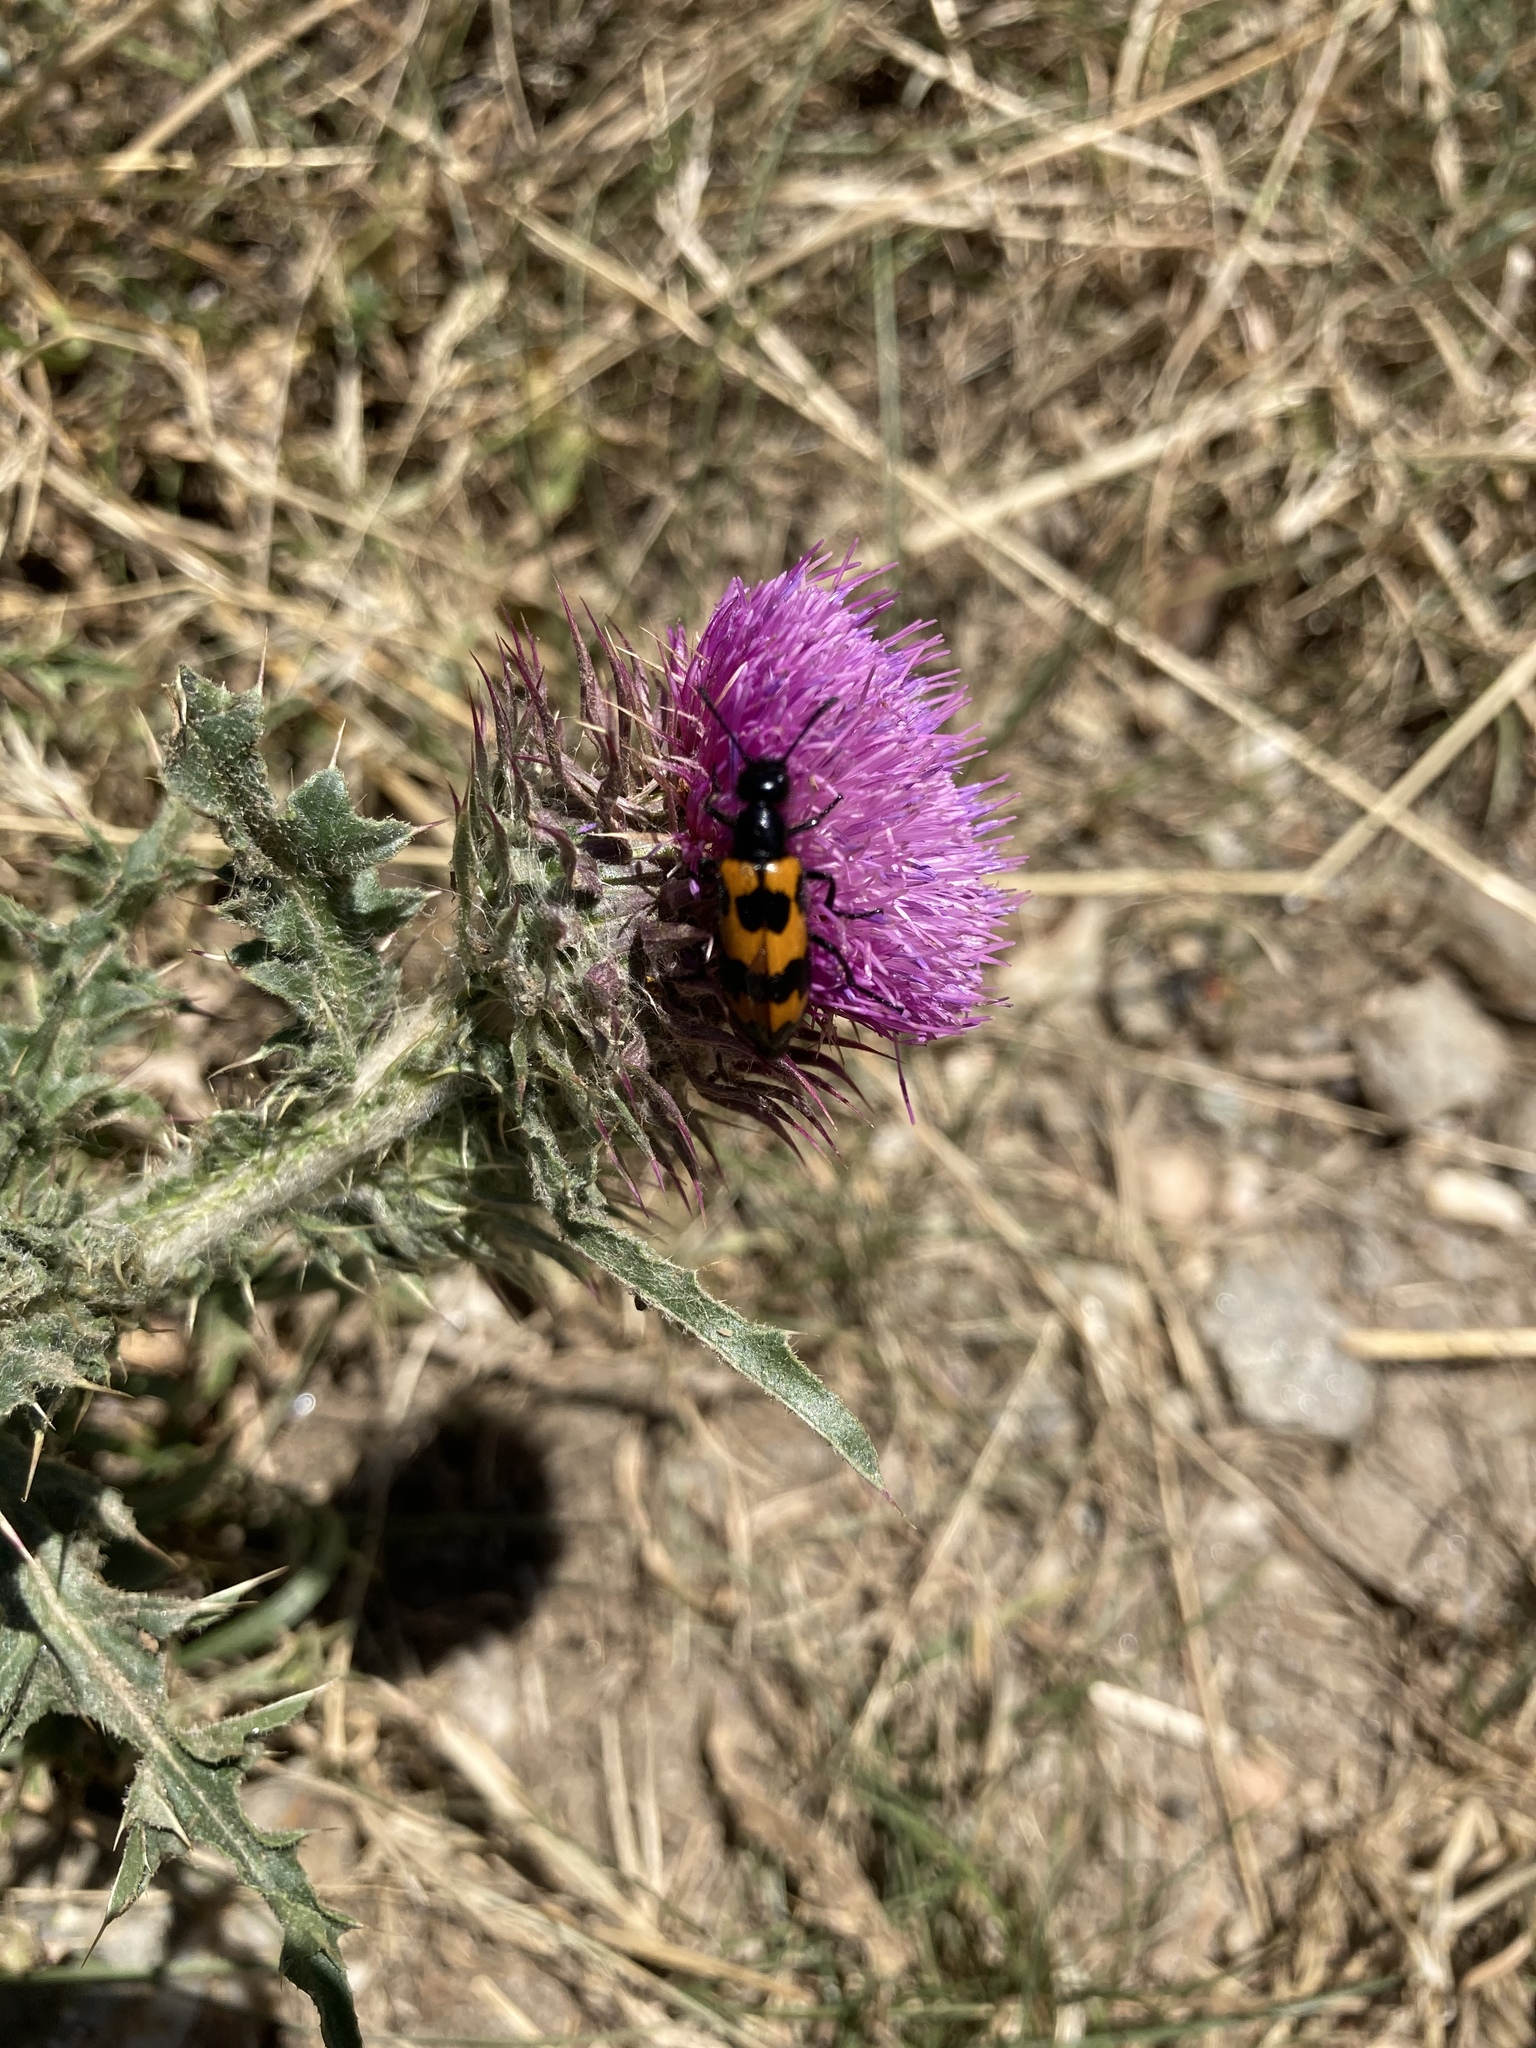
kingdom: Animalia
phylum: Arthropoda
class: Insecta
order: Coleoptera
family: Meloidae
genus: Mylabris
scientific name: Mylabris variabilis
